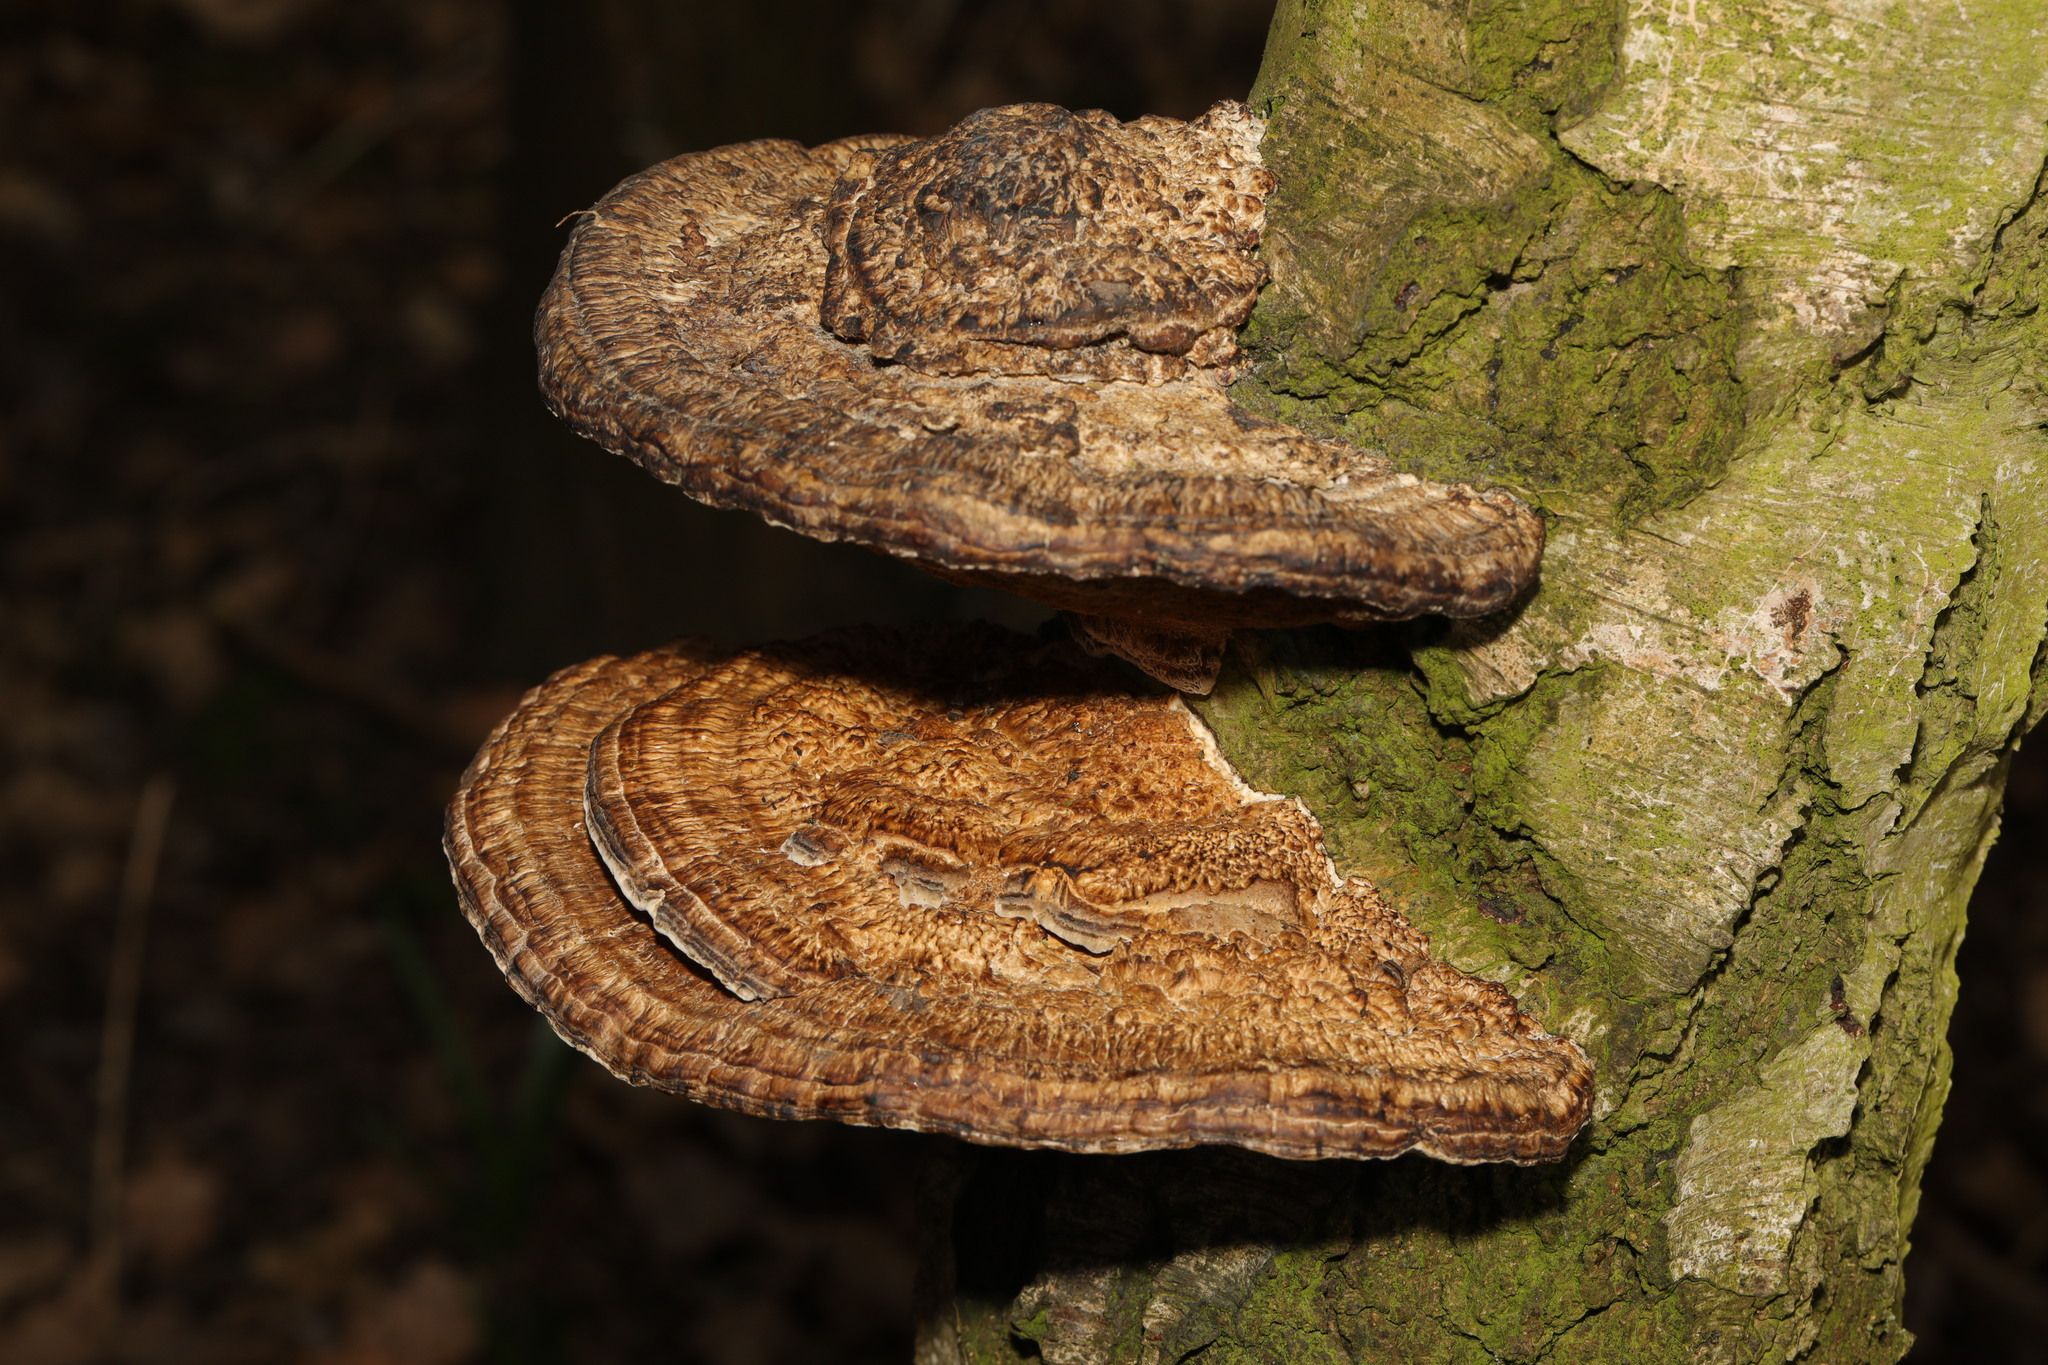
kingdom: Fungi
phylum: Basidiomycota
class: Agaricomycetes
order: Polyporales
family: Polyporaceae
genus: Daedaleopsis
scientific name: Daedaleopsis confragosa
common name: Blushing bracket
